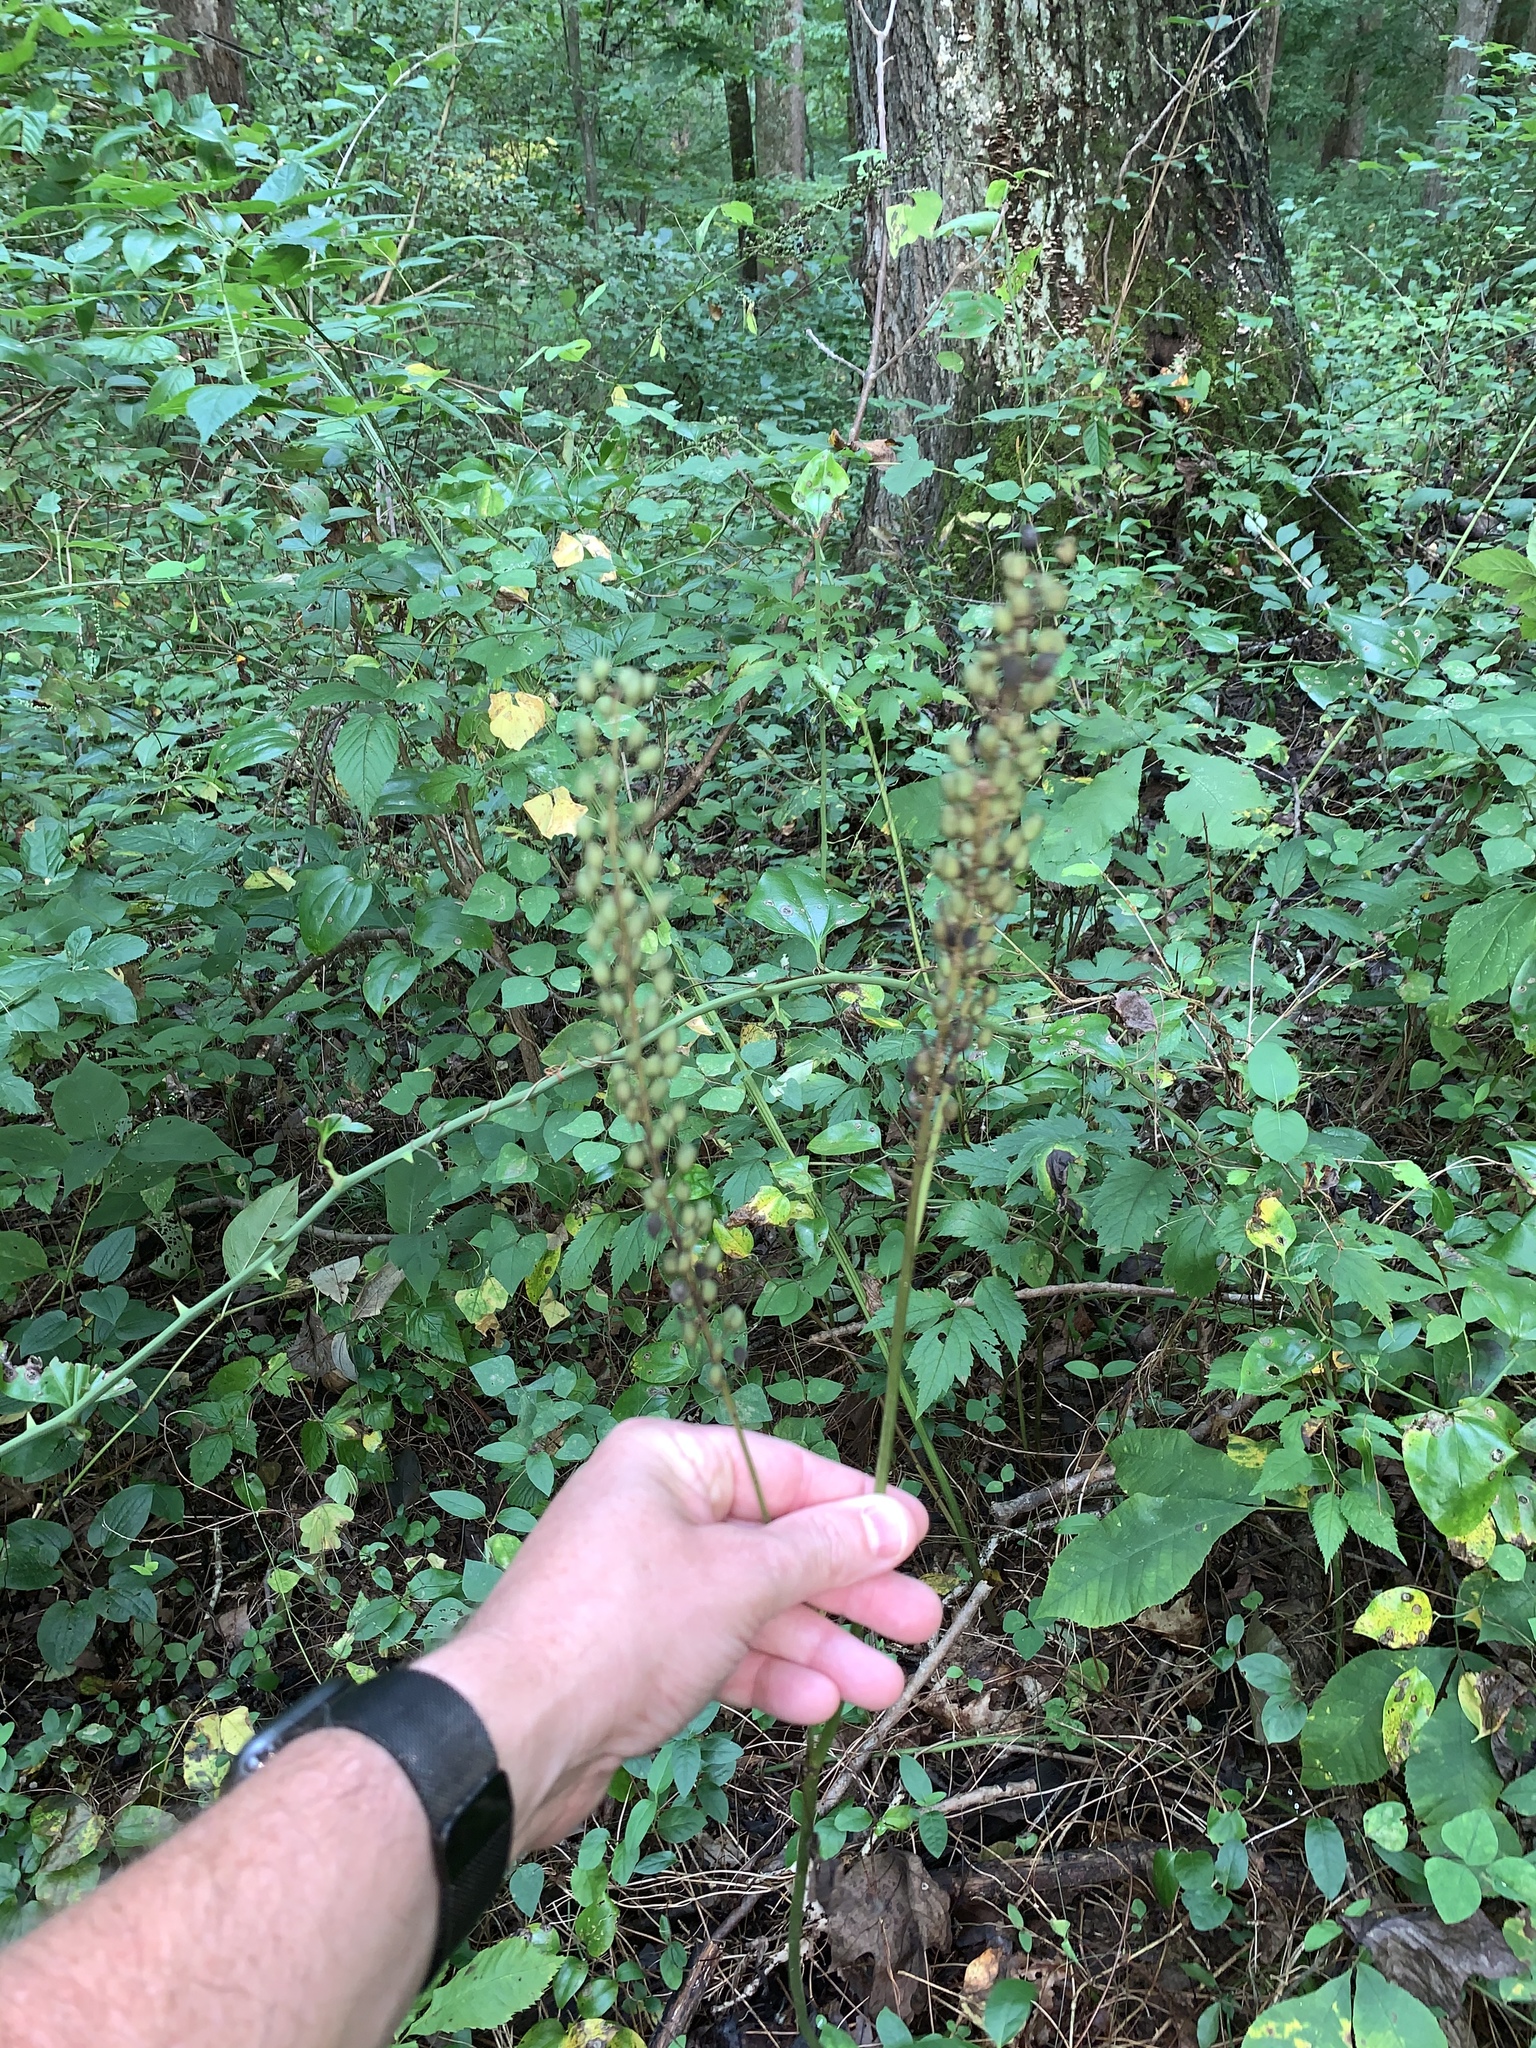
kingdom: Plantae
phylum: Tracheophyta
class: Magnoliopsida
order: Ranunculales
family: Ranunculaceae
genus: Actaea
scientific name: Actaea racemosa
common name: Black cohosh
